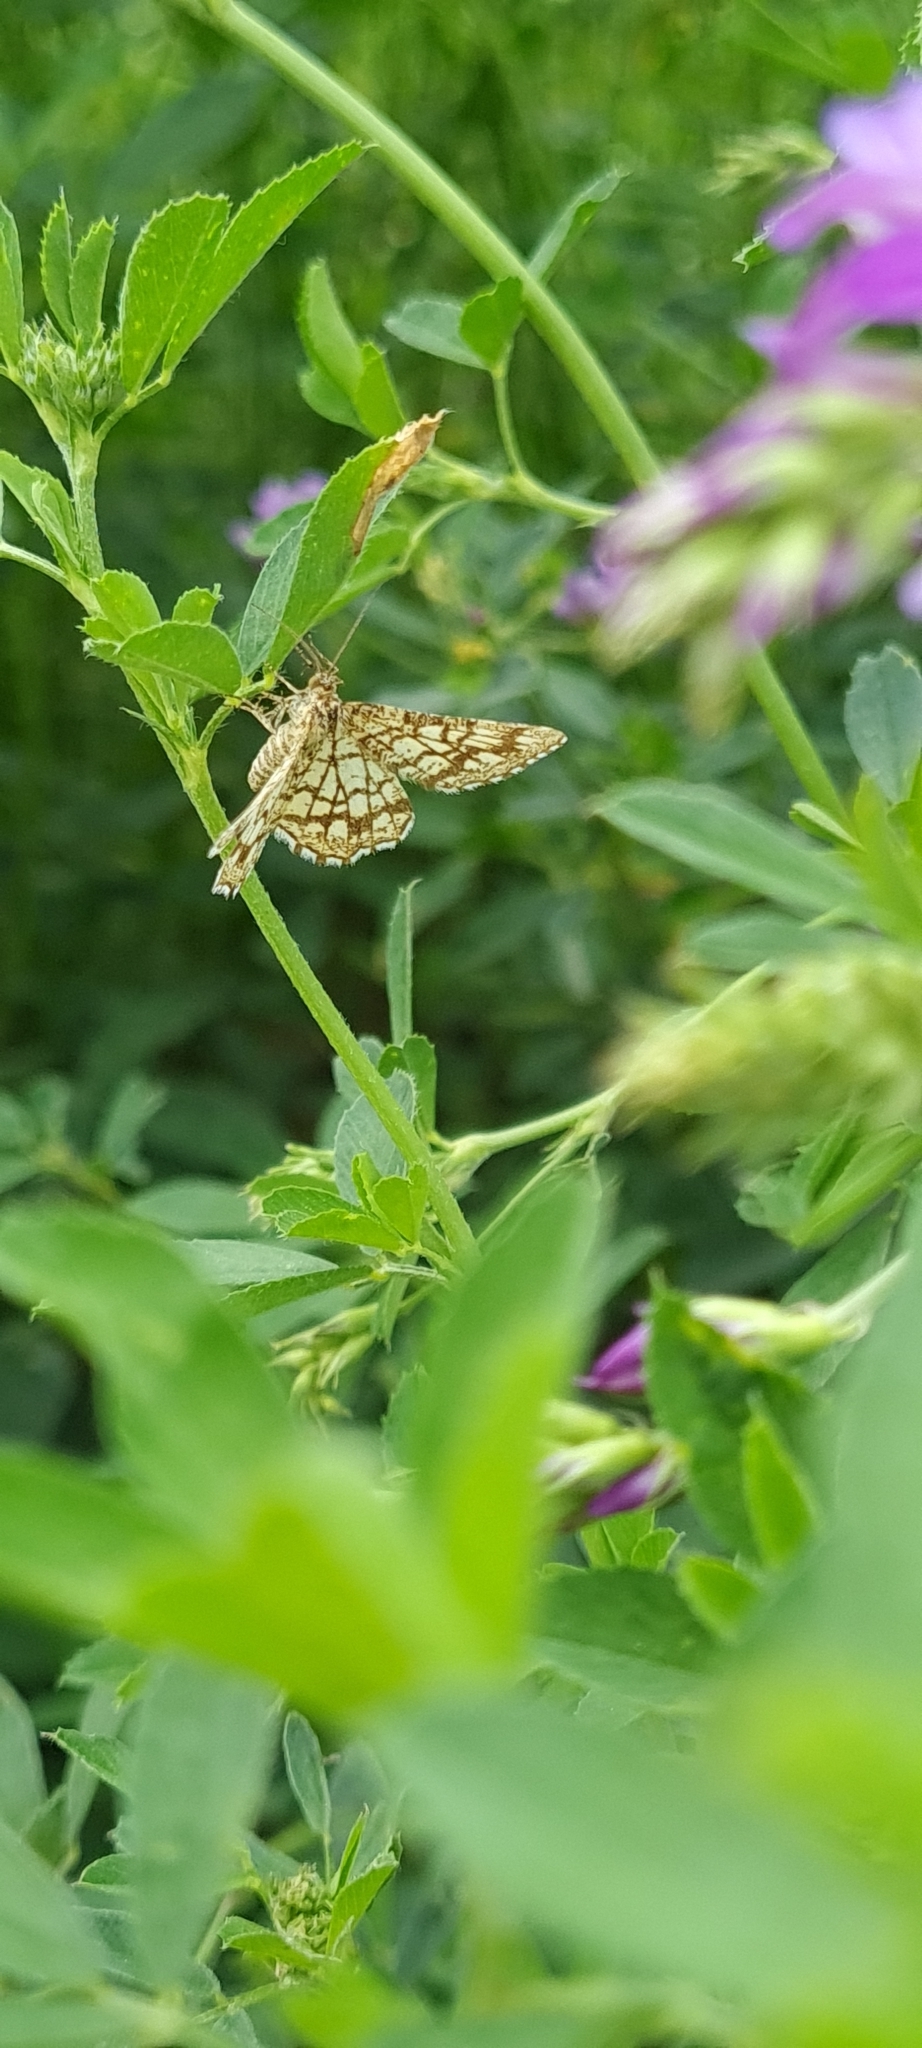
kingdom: Animalia
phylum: Arthropoda
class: Insecta
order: Lepidoptera
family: Geometridae
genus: Chiasmia
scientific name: Chiasmia clathrata
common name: Latticed heath
